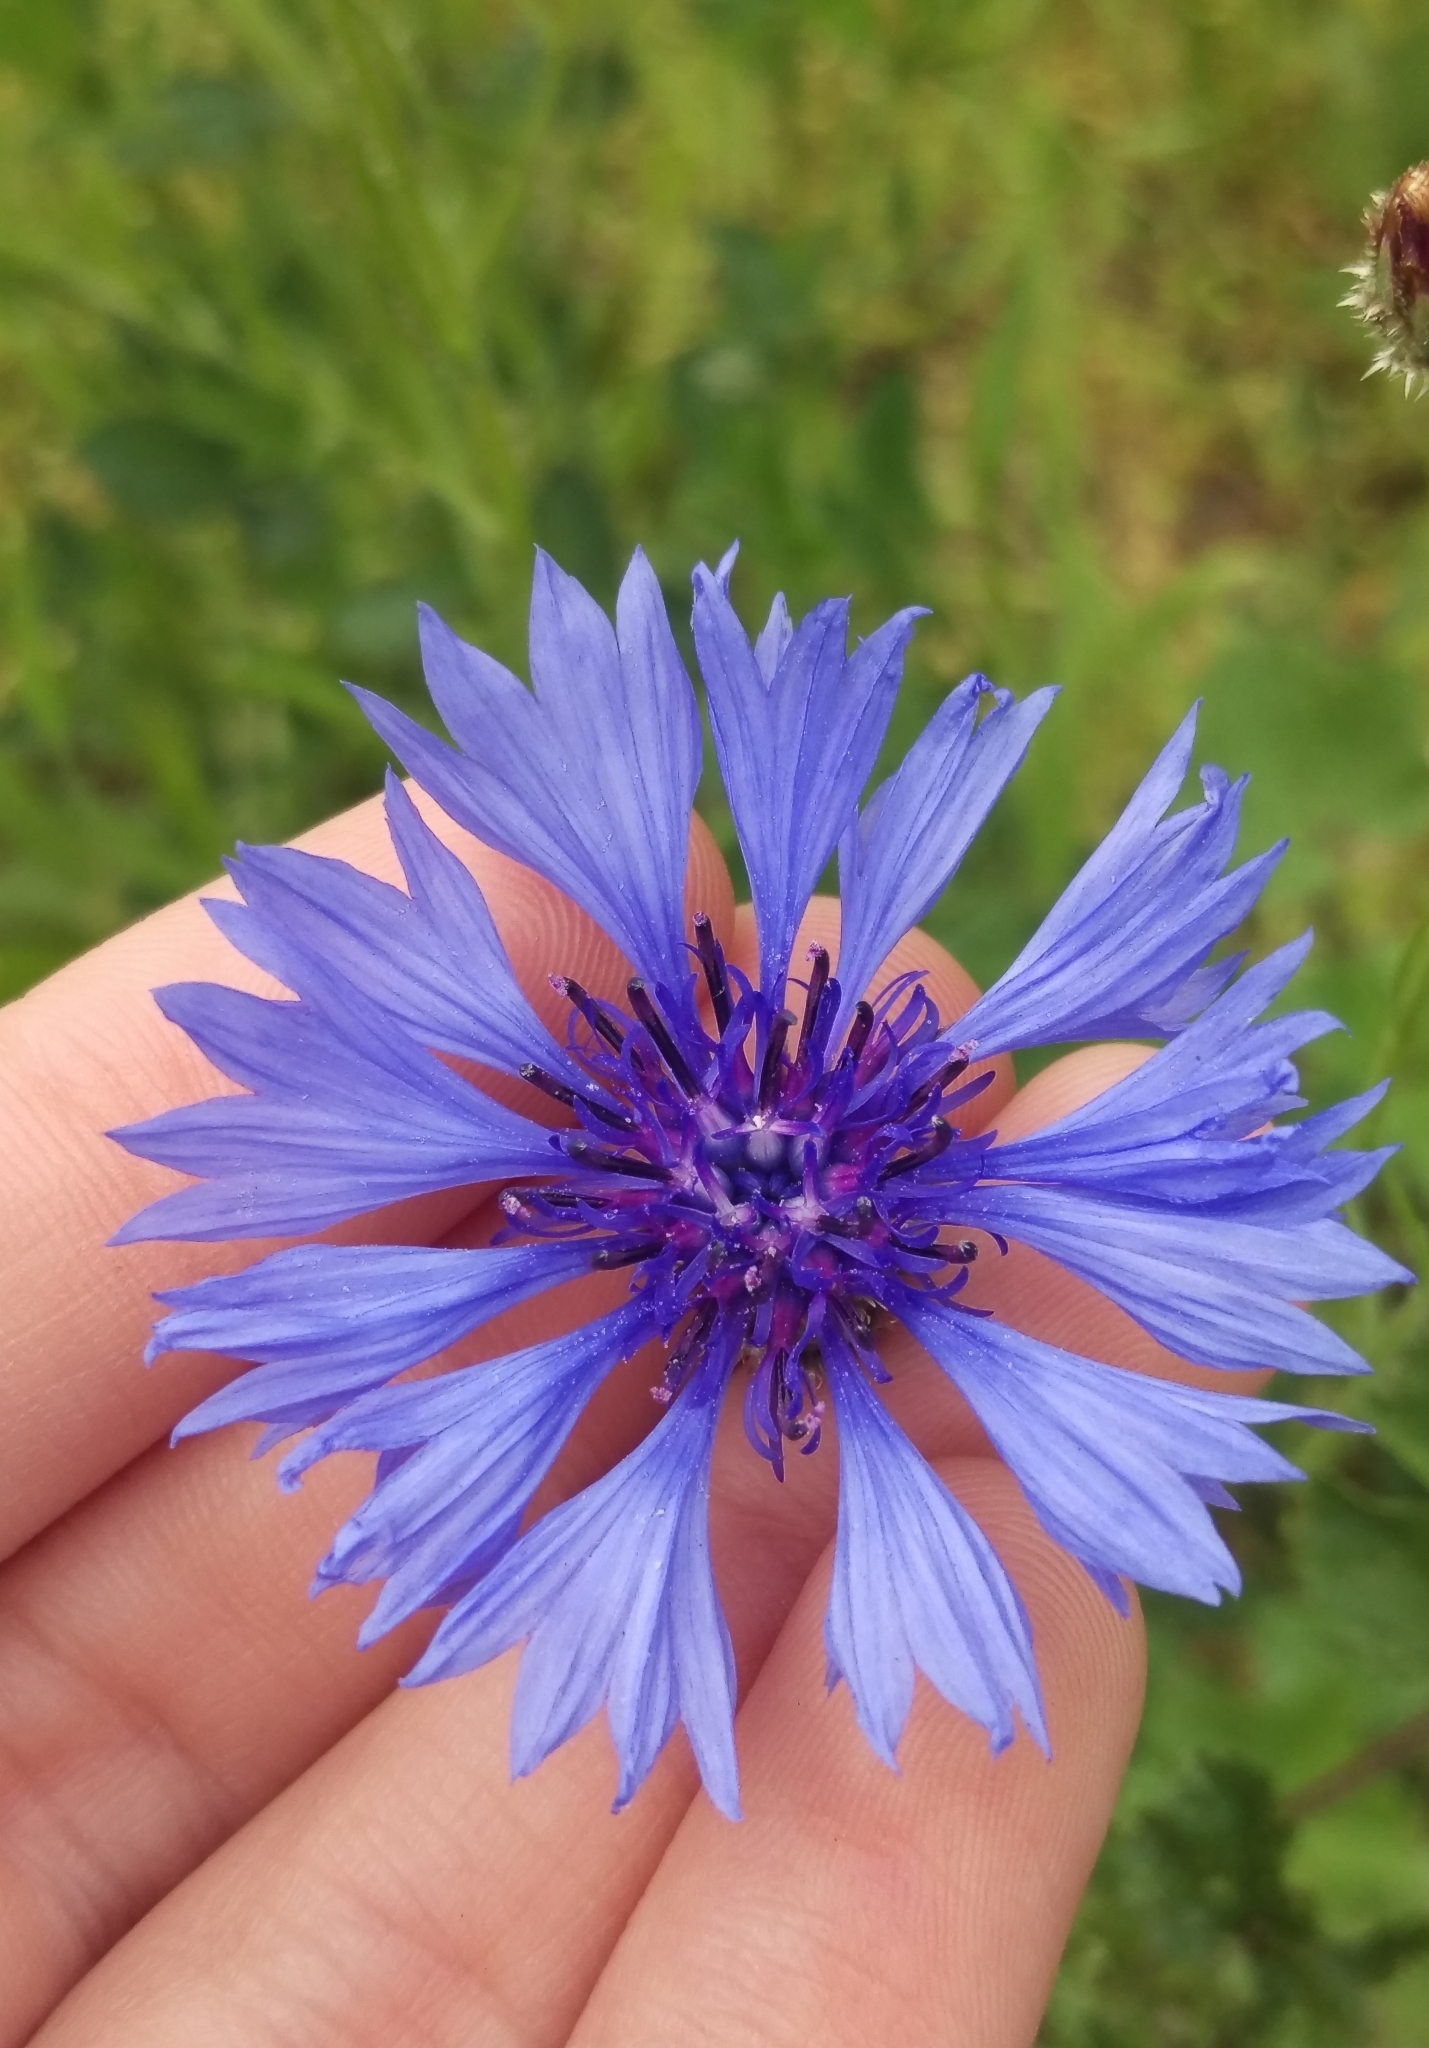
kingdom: Plantae
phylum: Tracheophyta
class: Magnoliopsida
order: Asterales
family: Asteraceae
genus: Centaurea
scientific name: Centaurea cyanus
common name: Cornflower
